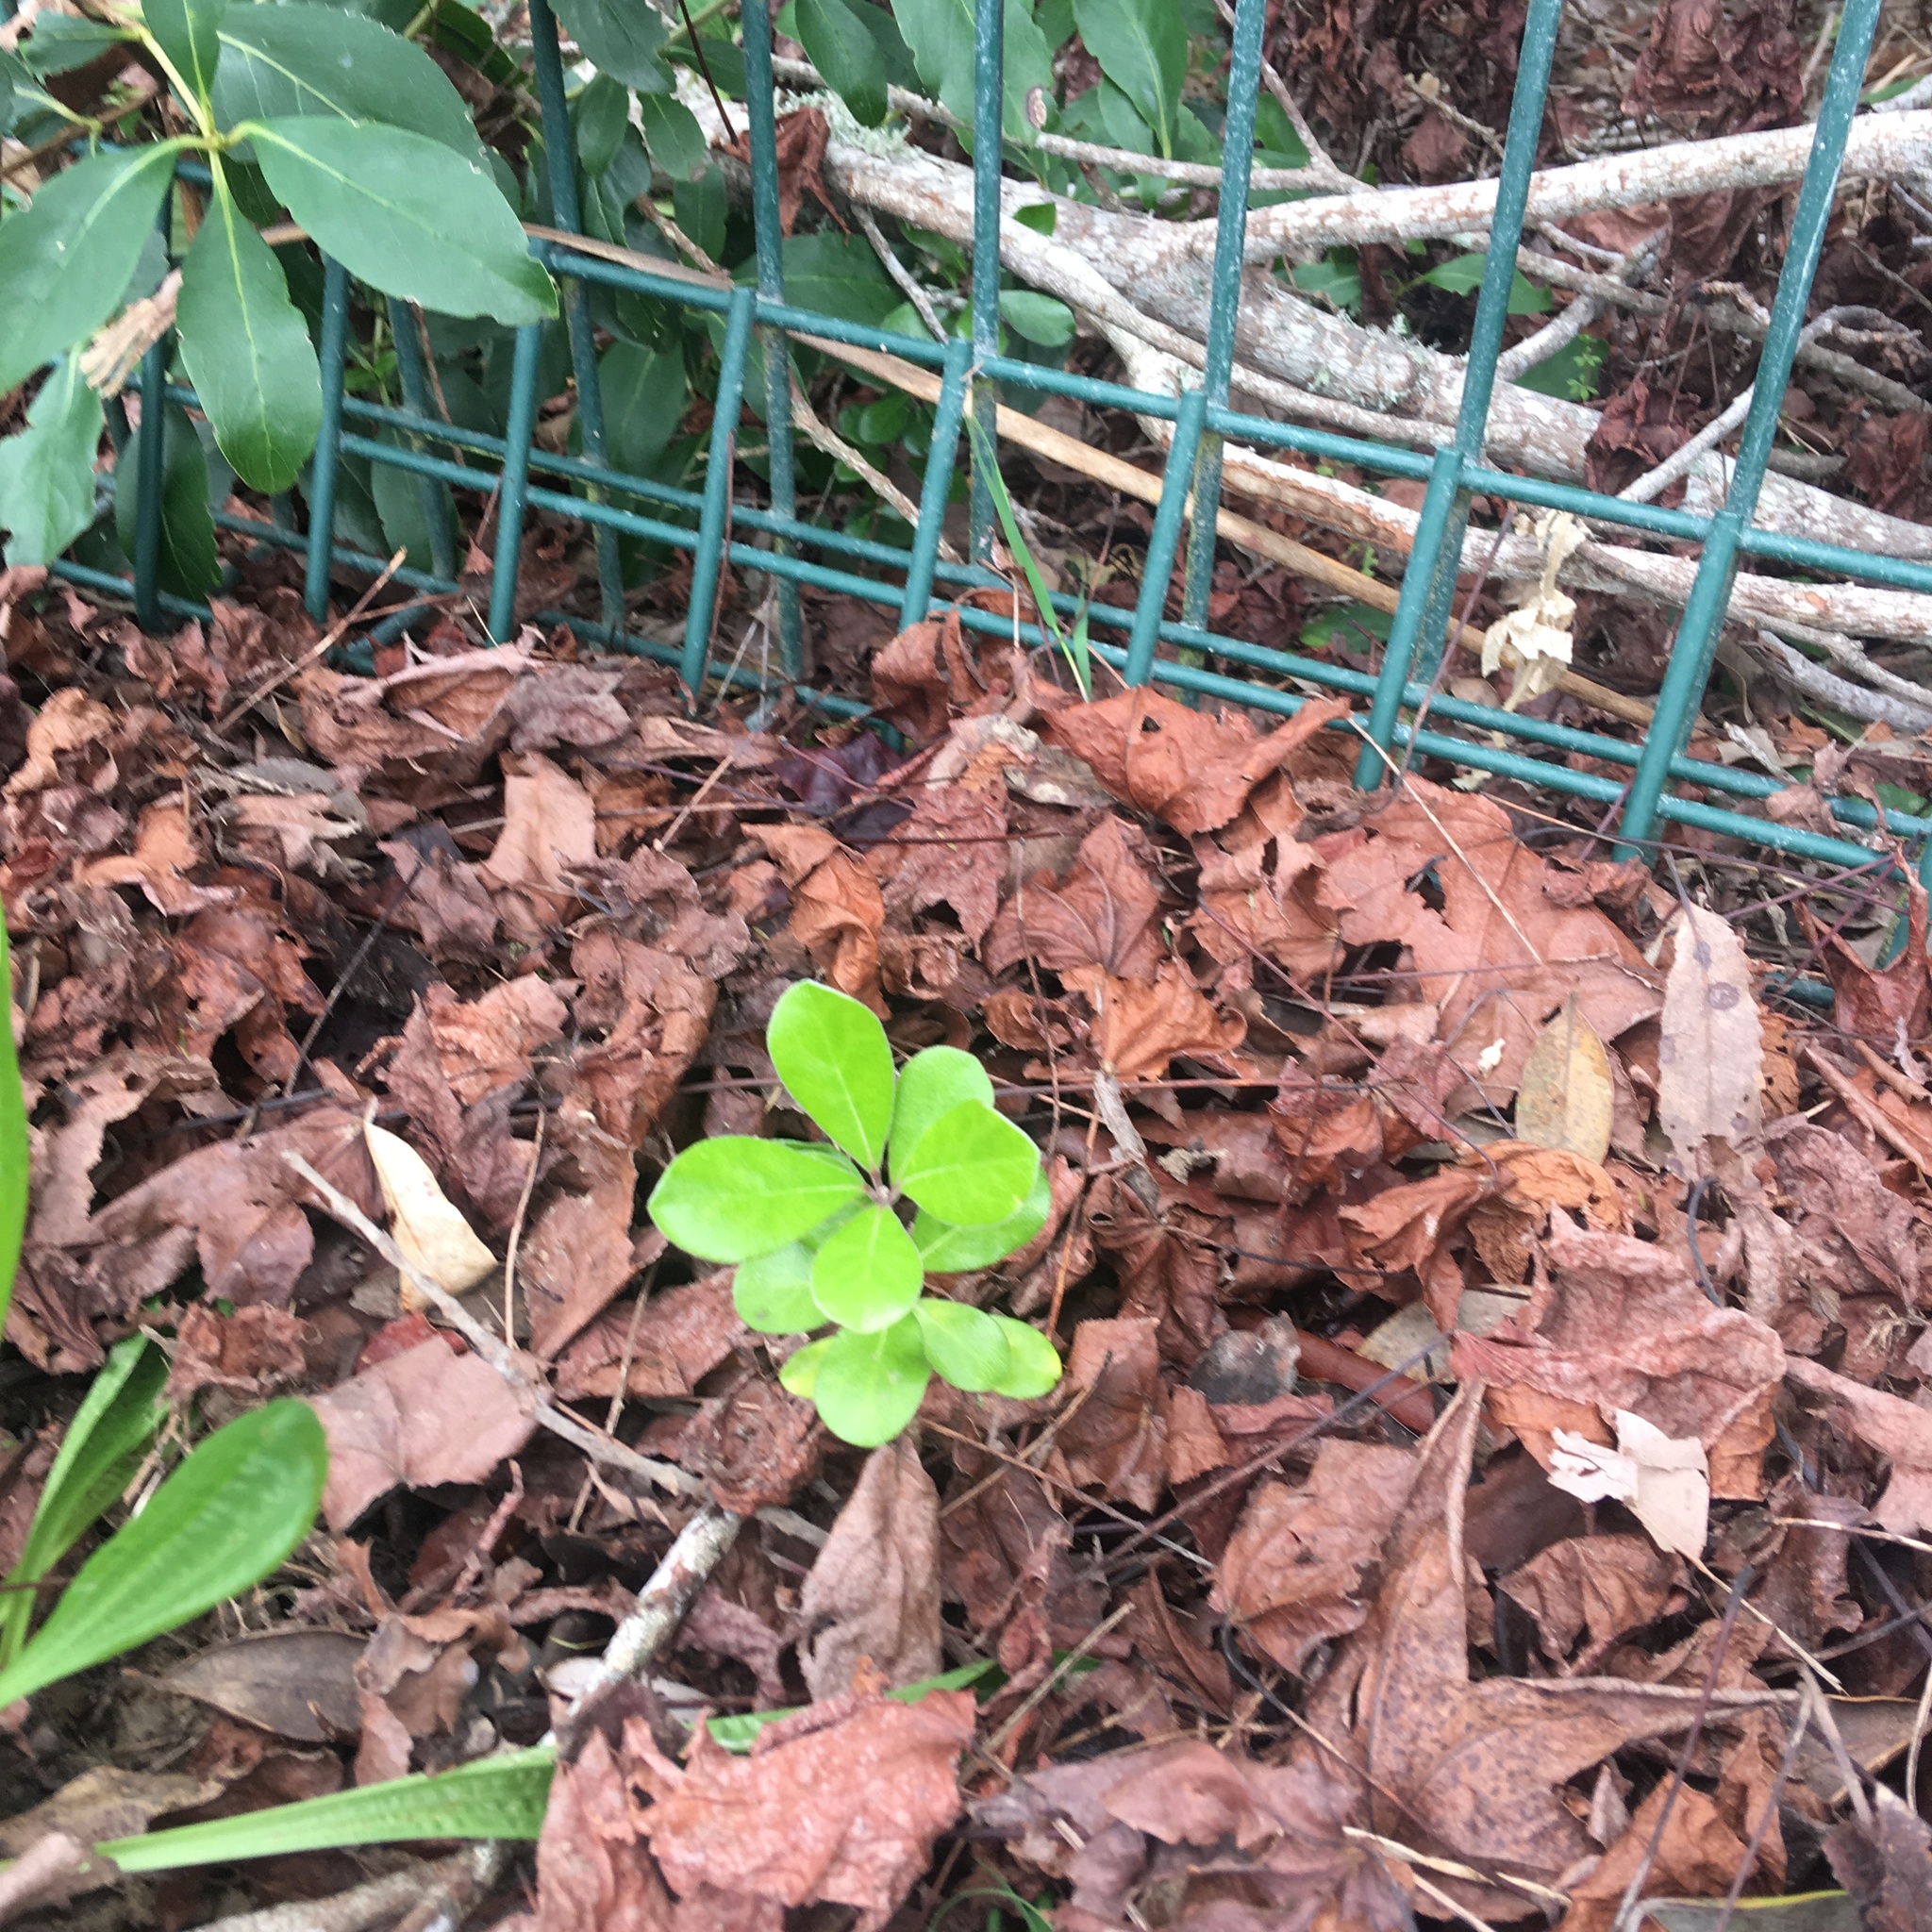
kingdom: Plantae
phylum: Tracheophyta
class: Magnoliopsida
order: Apiales
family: Pittosporaceae
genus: Pittosporum
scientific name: Pittosporum crassifolium
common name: Karo
